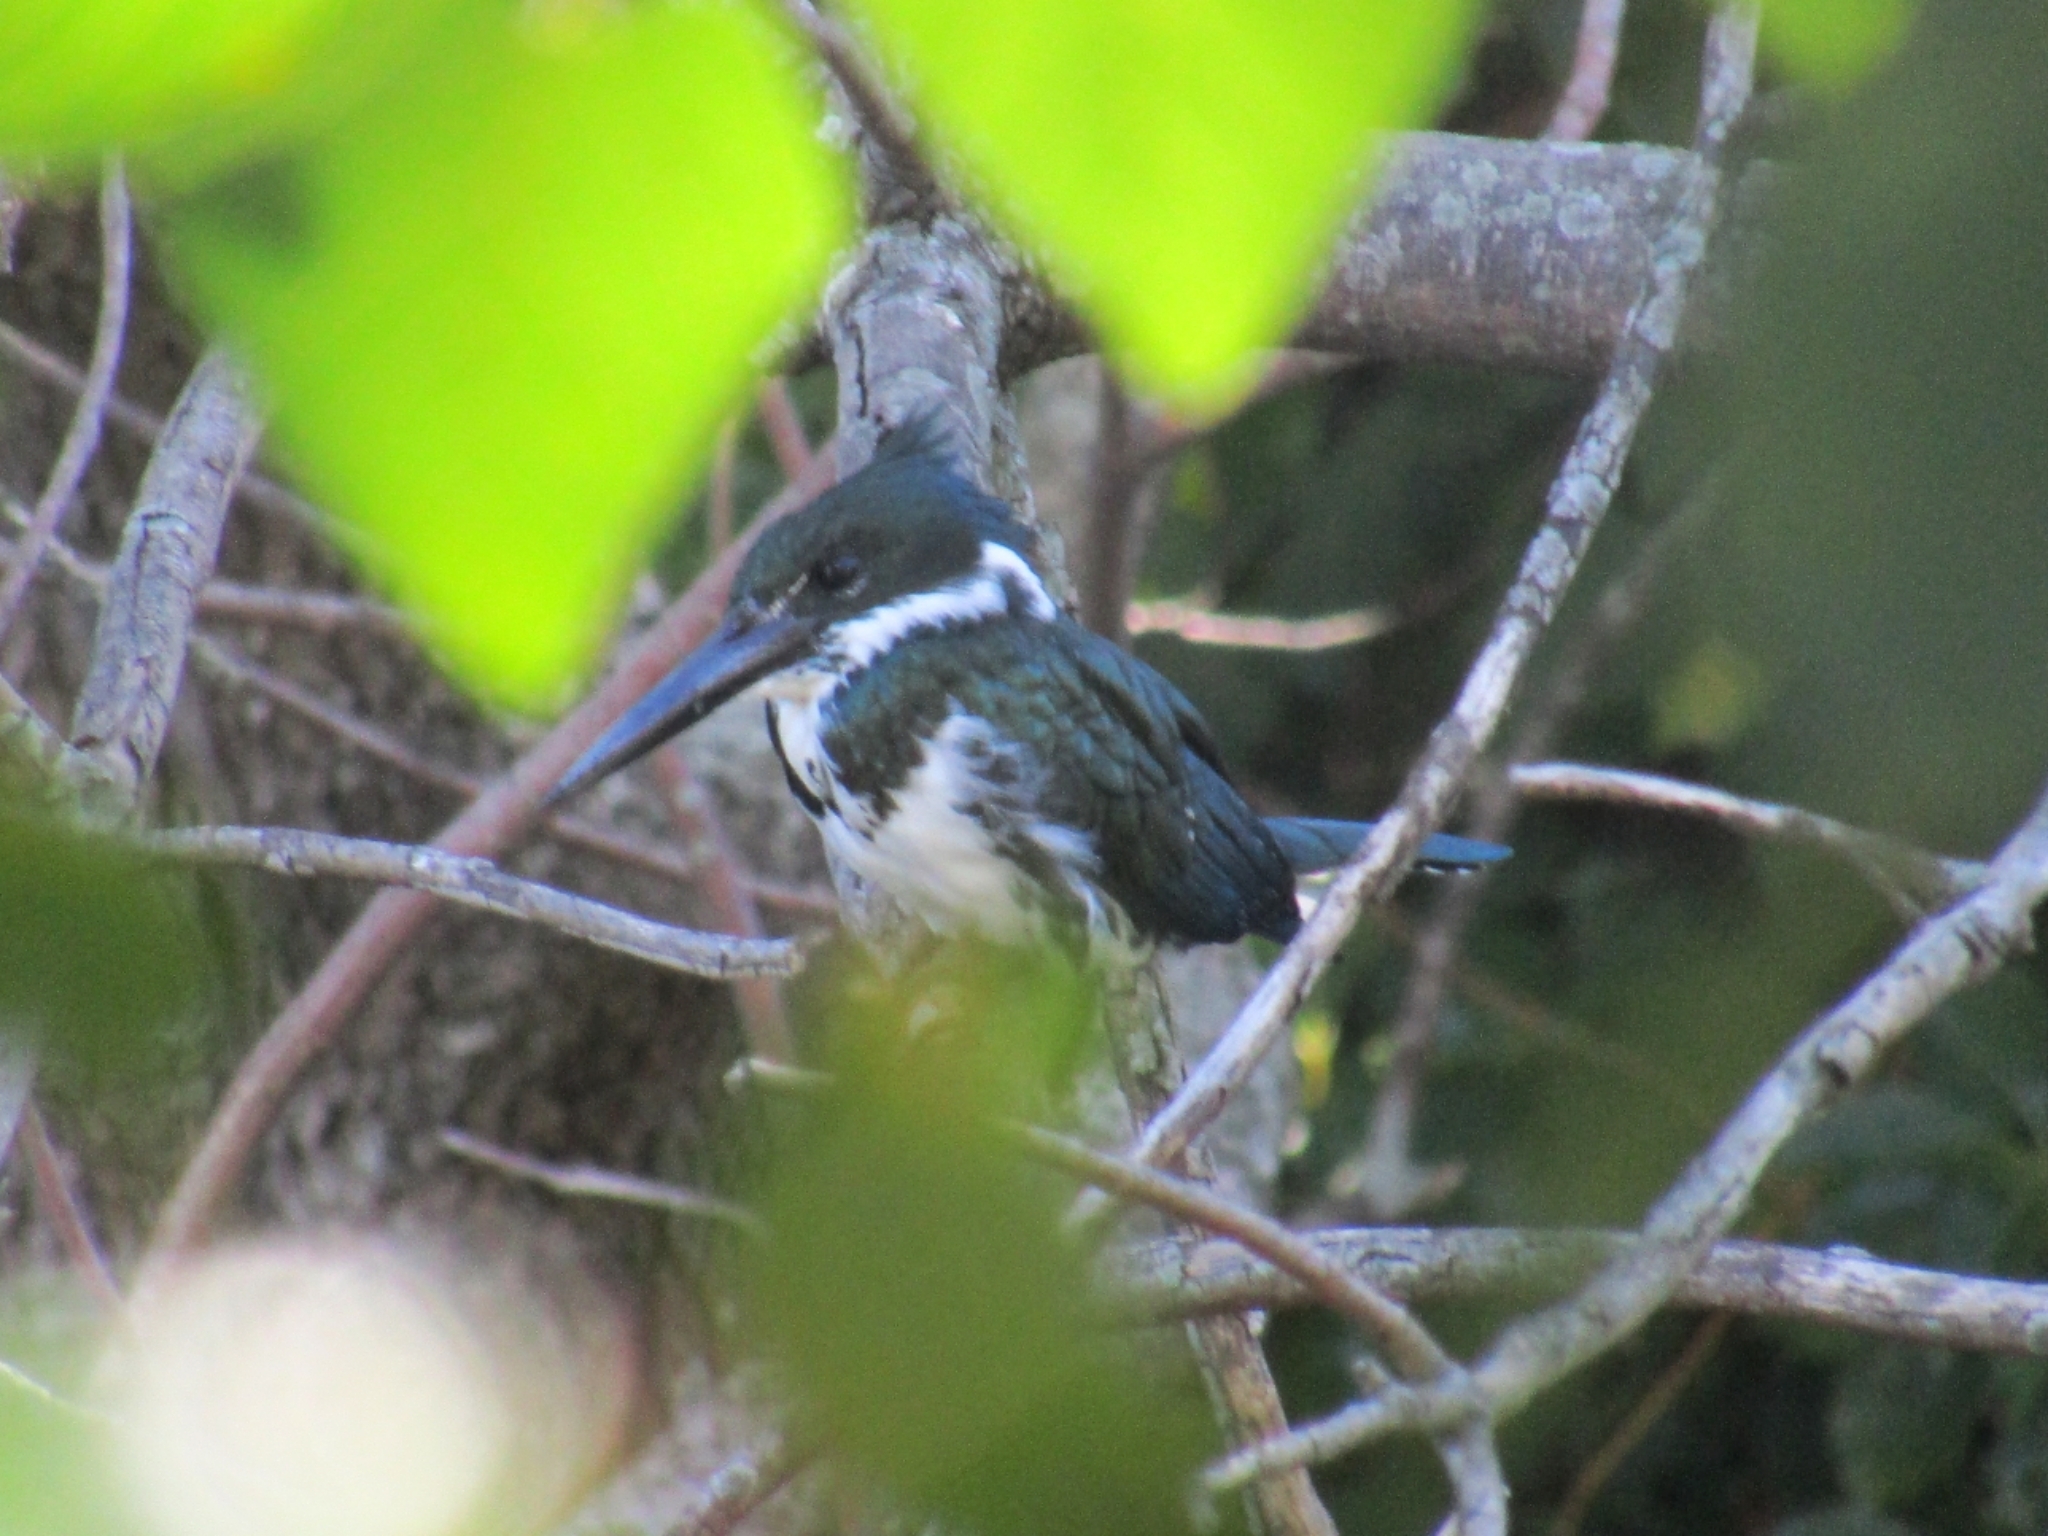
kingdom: Animalia
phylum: Chordata
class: Aves
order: Coraciiformes
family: Alcedinidae
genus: Chloroceryle
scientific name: Chloroceryle amazona
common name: Amazon kingfisher
